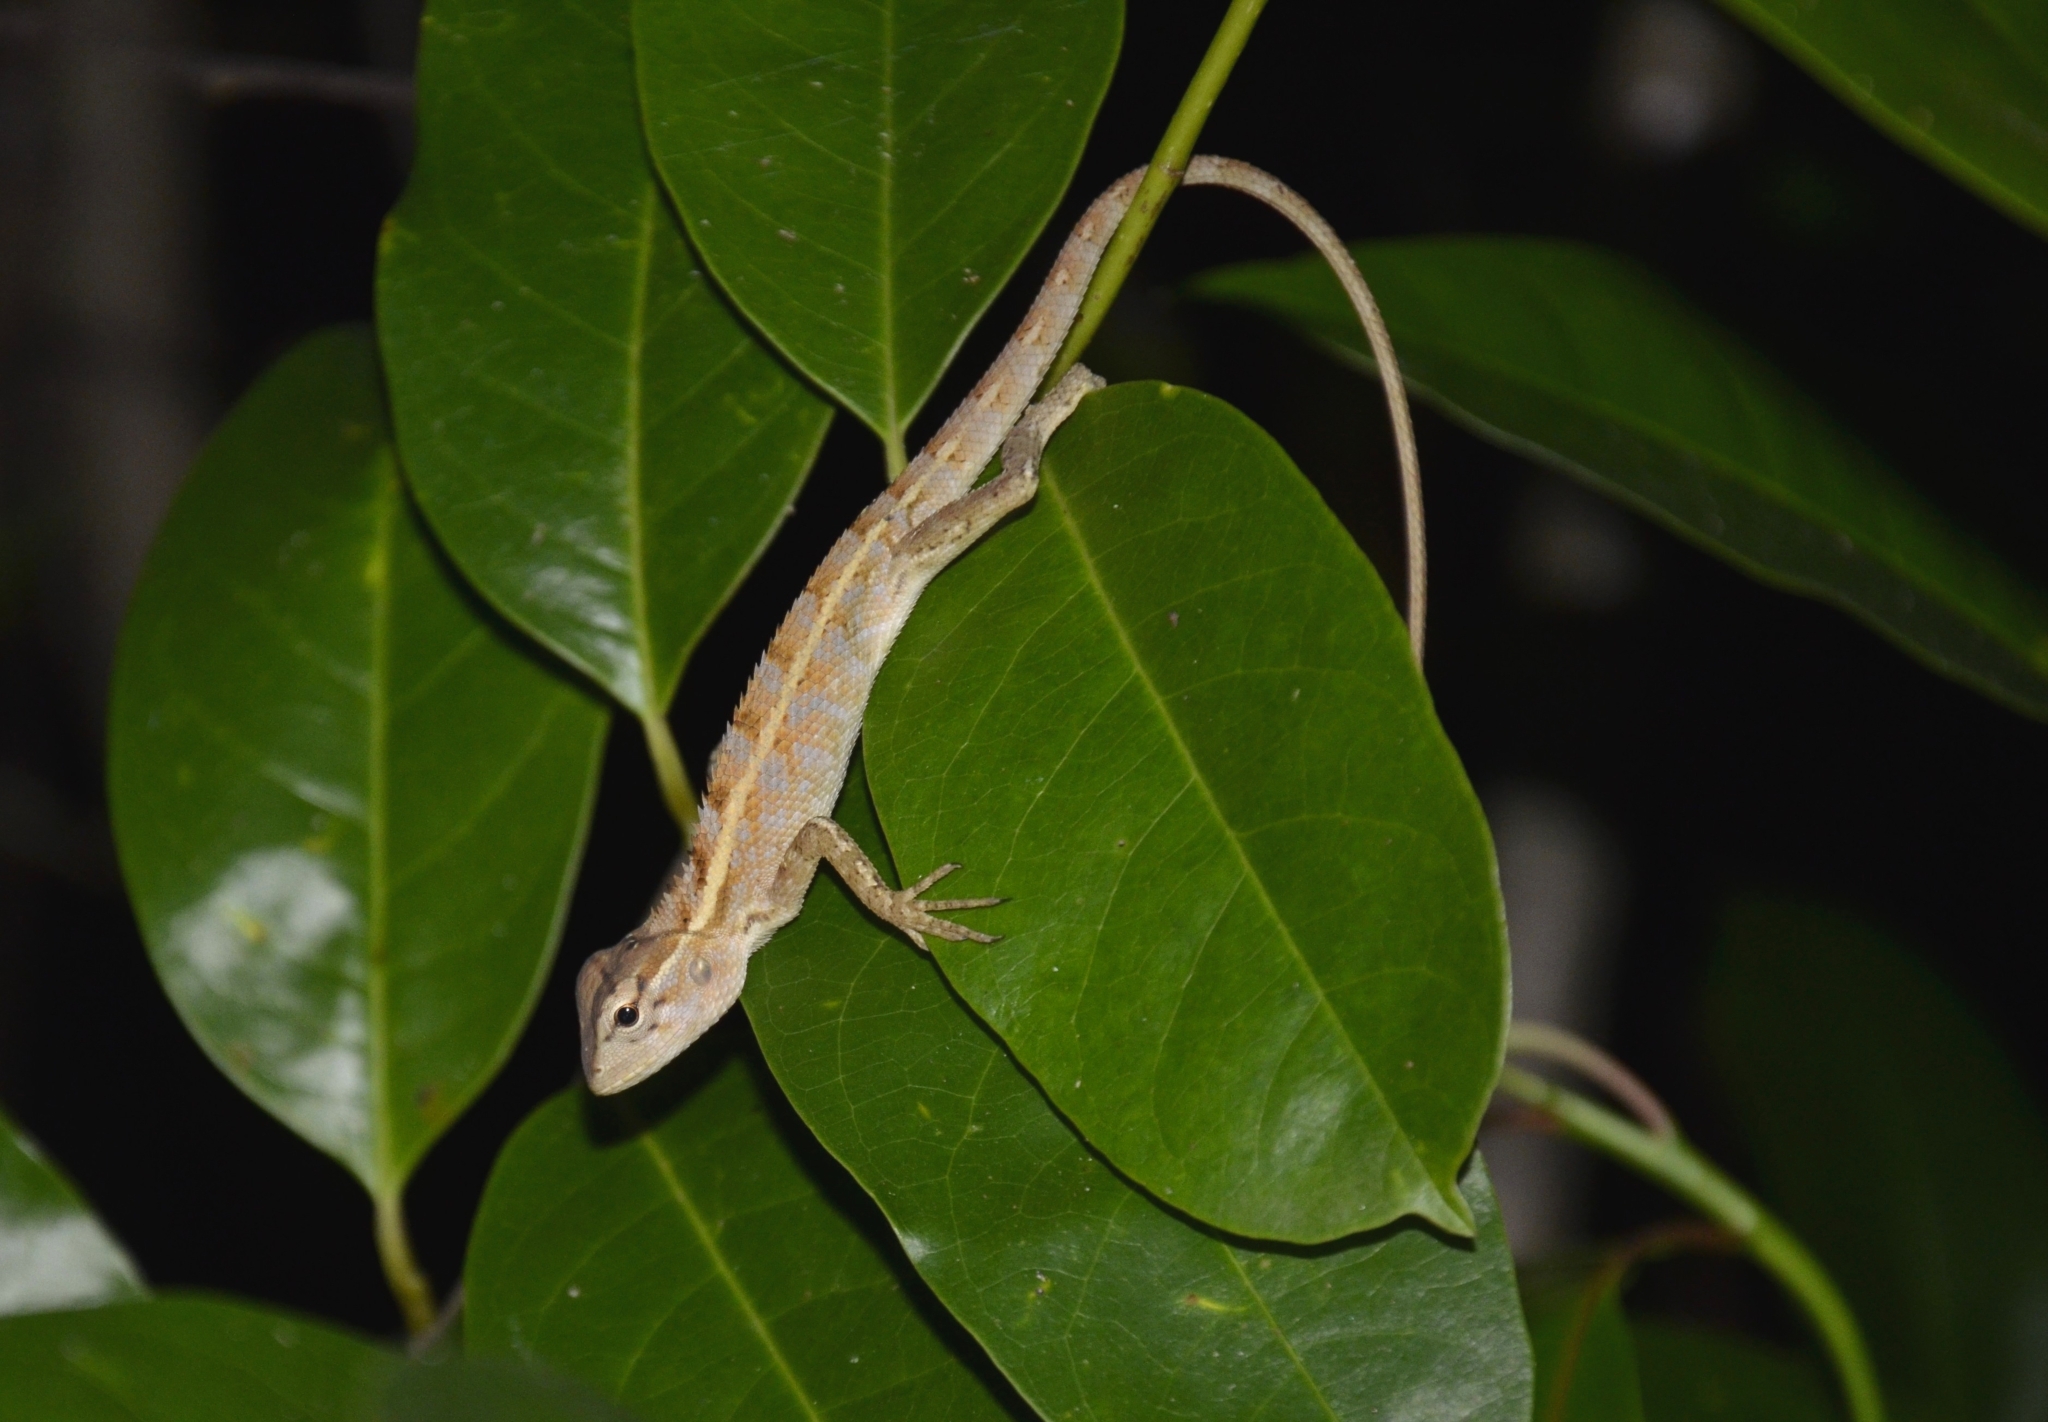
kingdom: Animalia
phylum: Chordata
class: Squamata
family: Agamidae
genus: Calotes
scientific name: Calotes versicolor
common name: Oriental garden lizard
